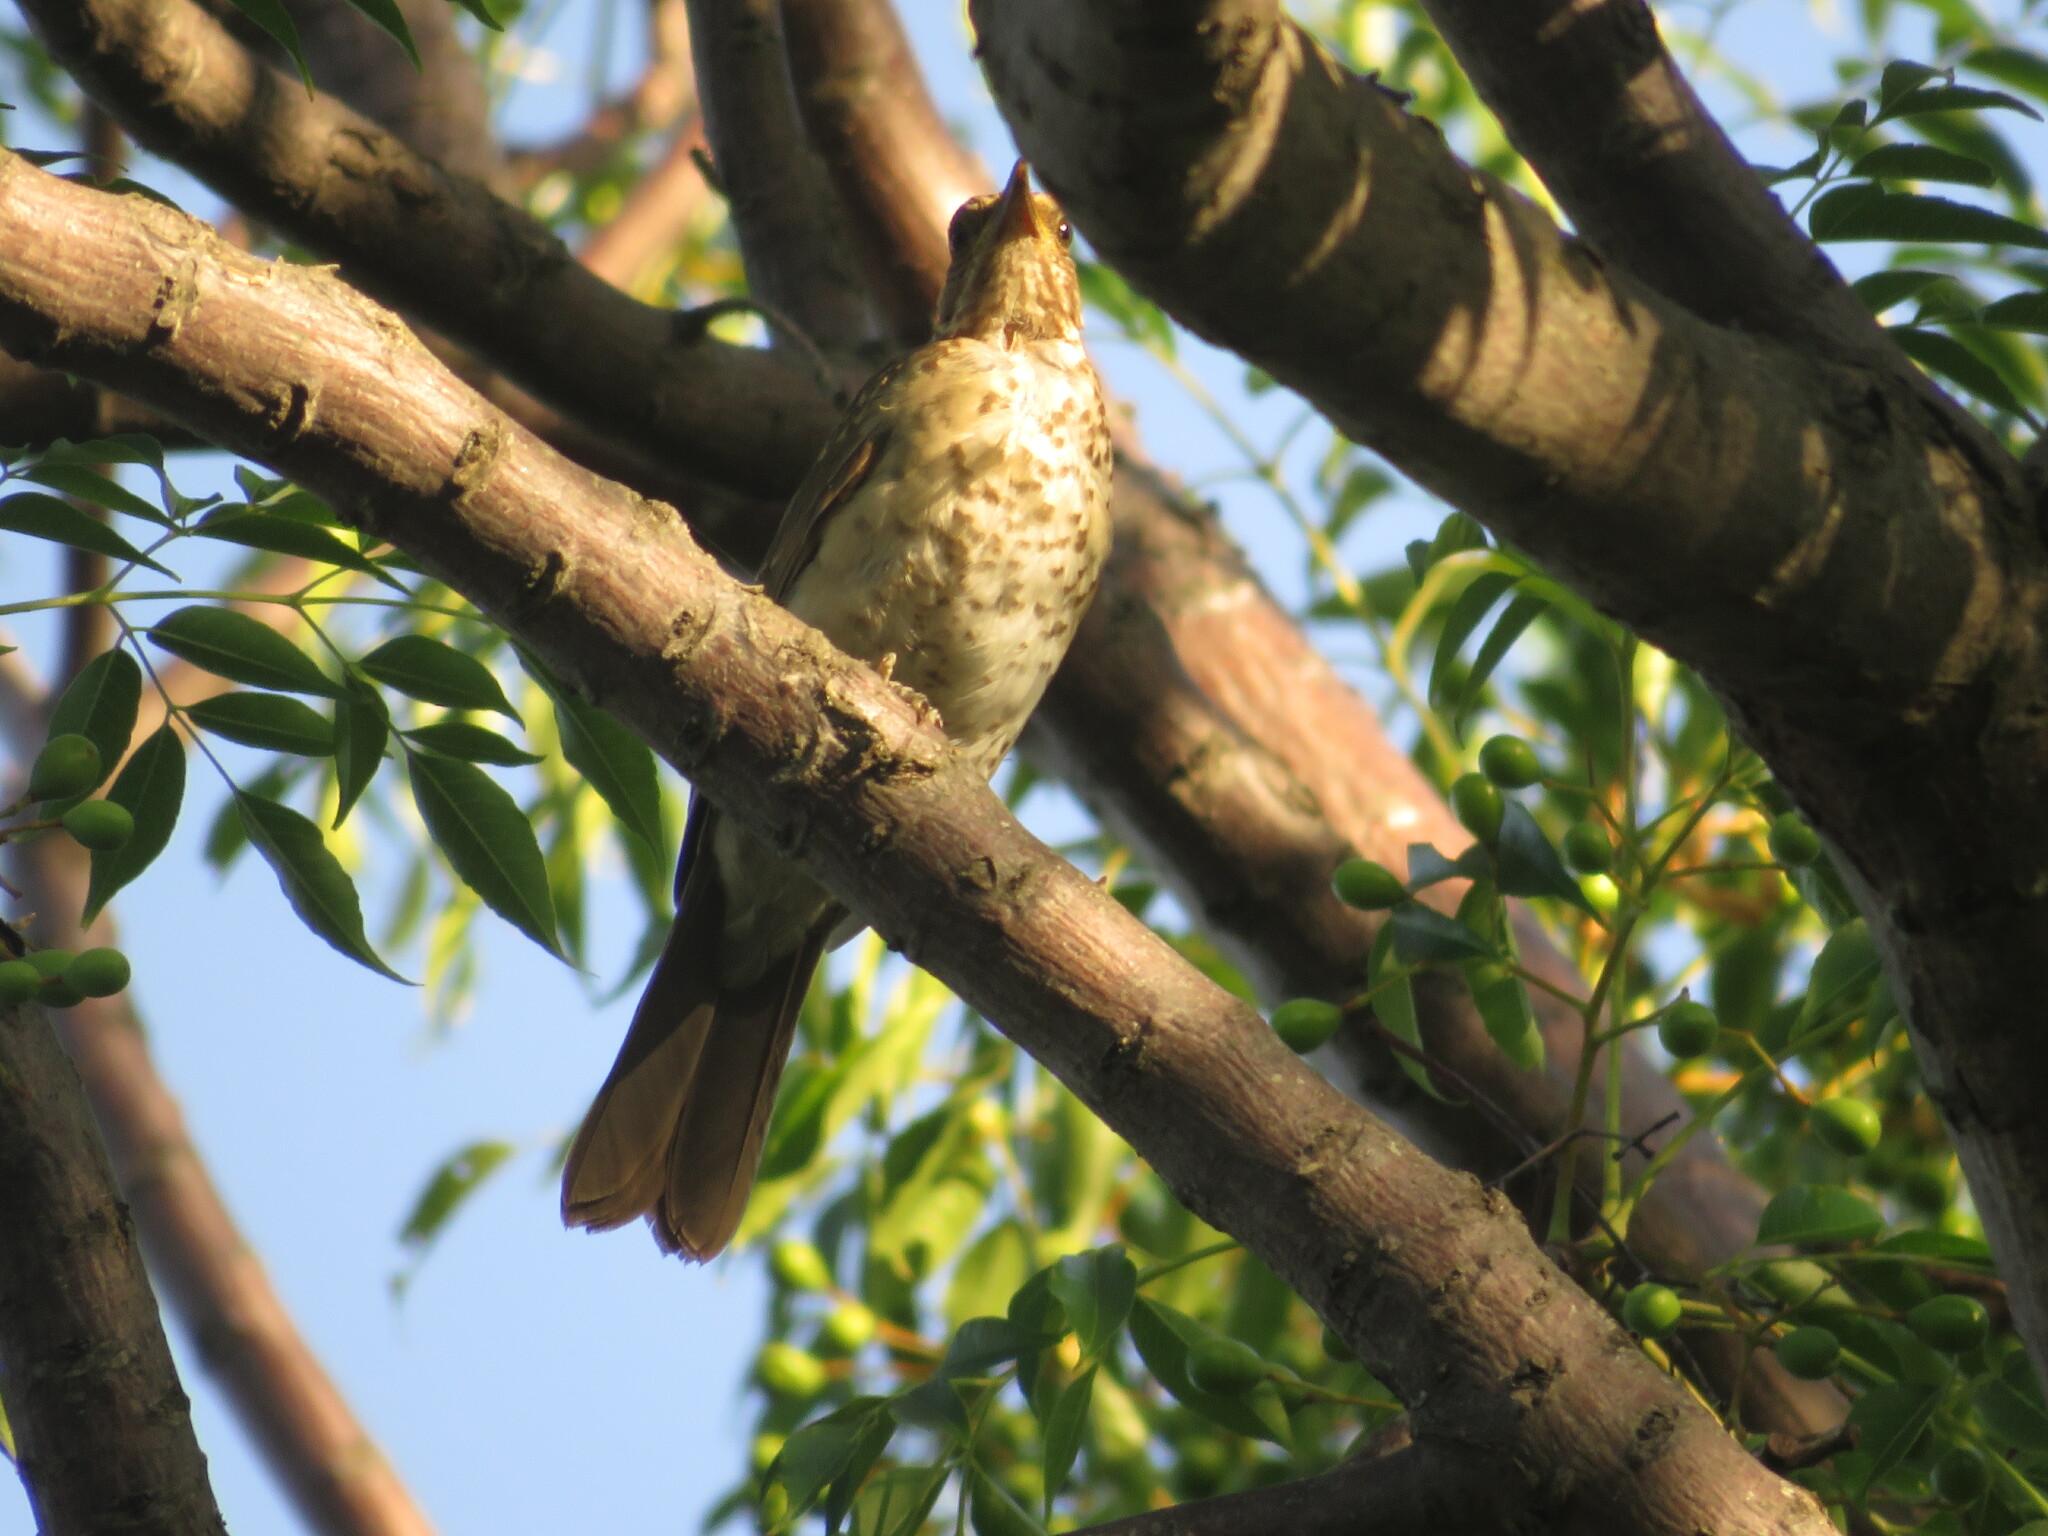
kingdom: Animalia
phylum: Chordata
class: Aves
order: Passeriformes
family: Turdidae
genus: Turdus
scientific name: Turdus amaurochalinus
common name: Creamy-bellied thrush
